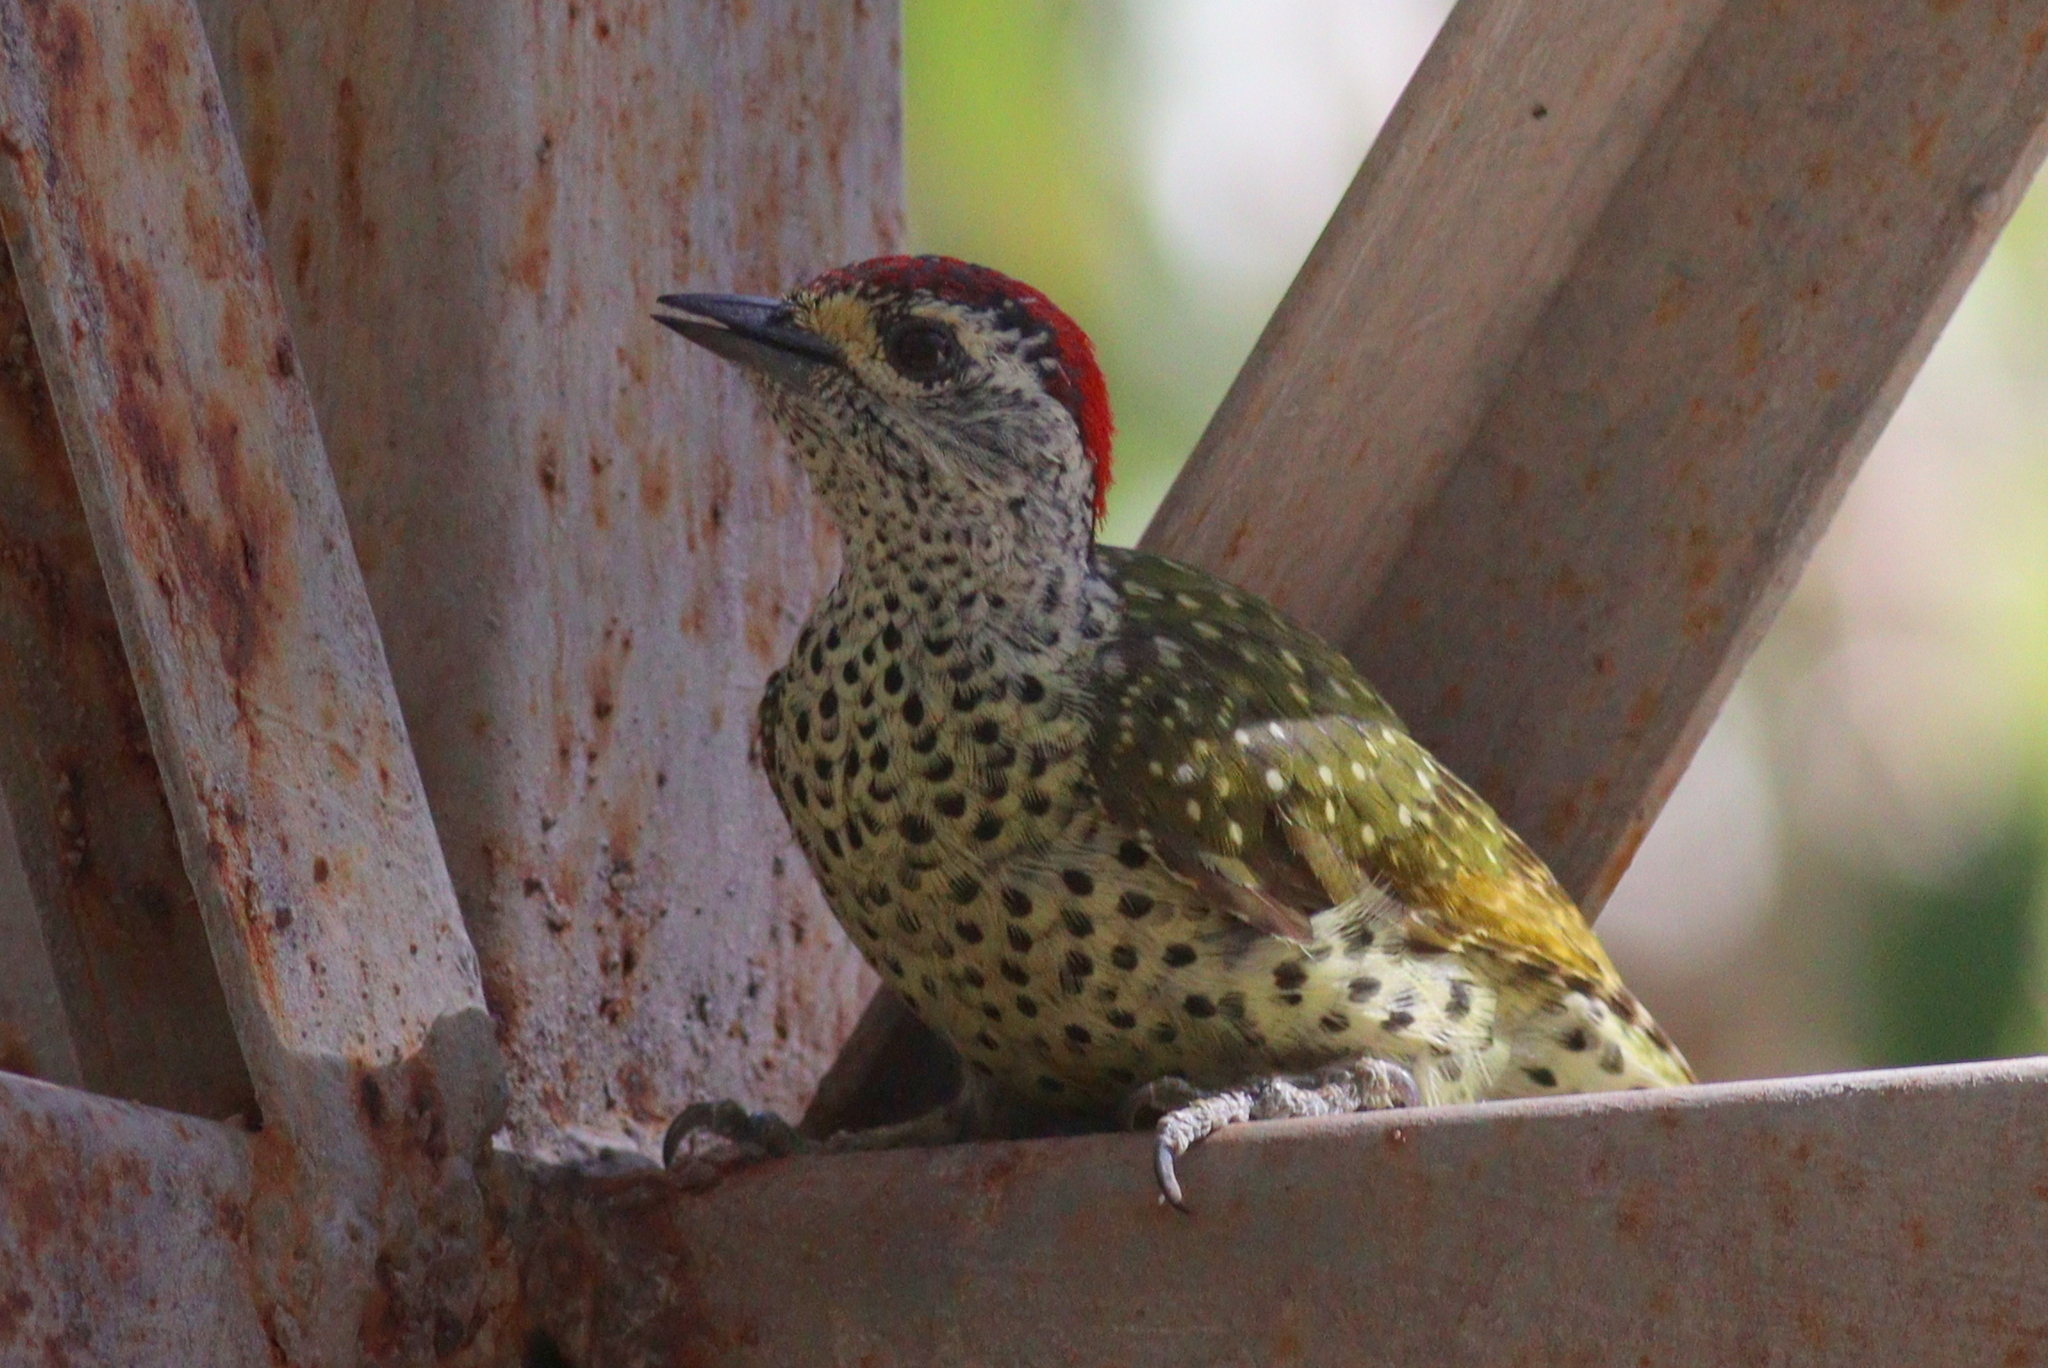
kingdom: Animalia
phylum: Chordata
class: Aves
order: Piciformes
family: Picidae
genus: Campethera
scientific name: Campethera maculosa
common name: Little green woodpecker
